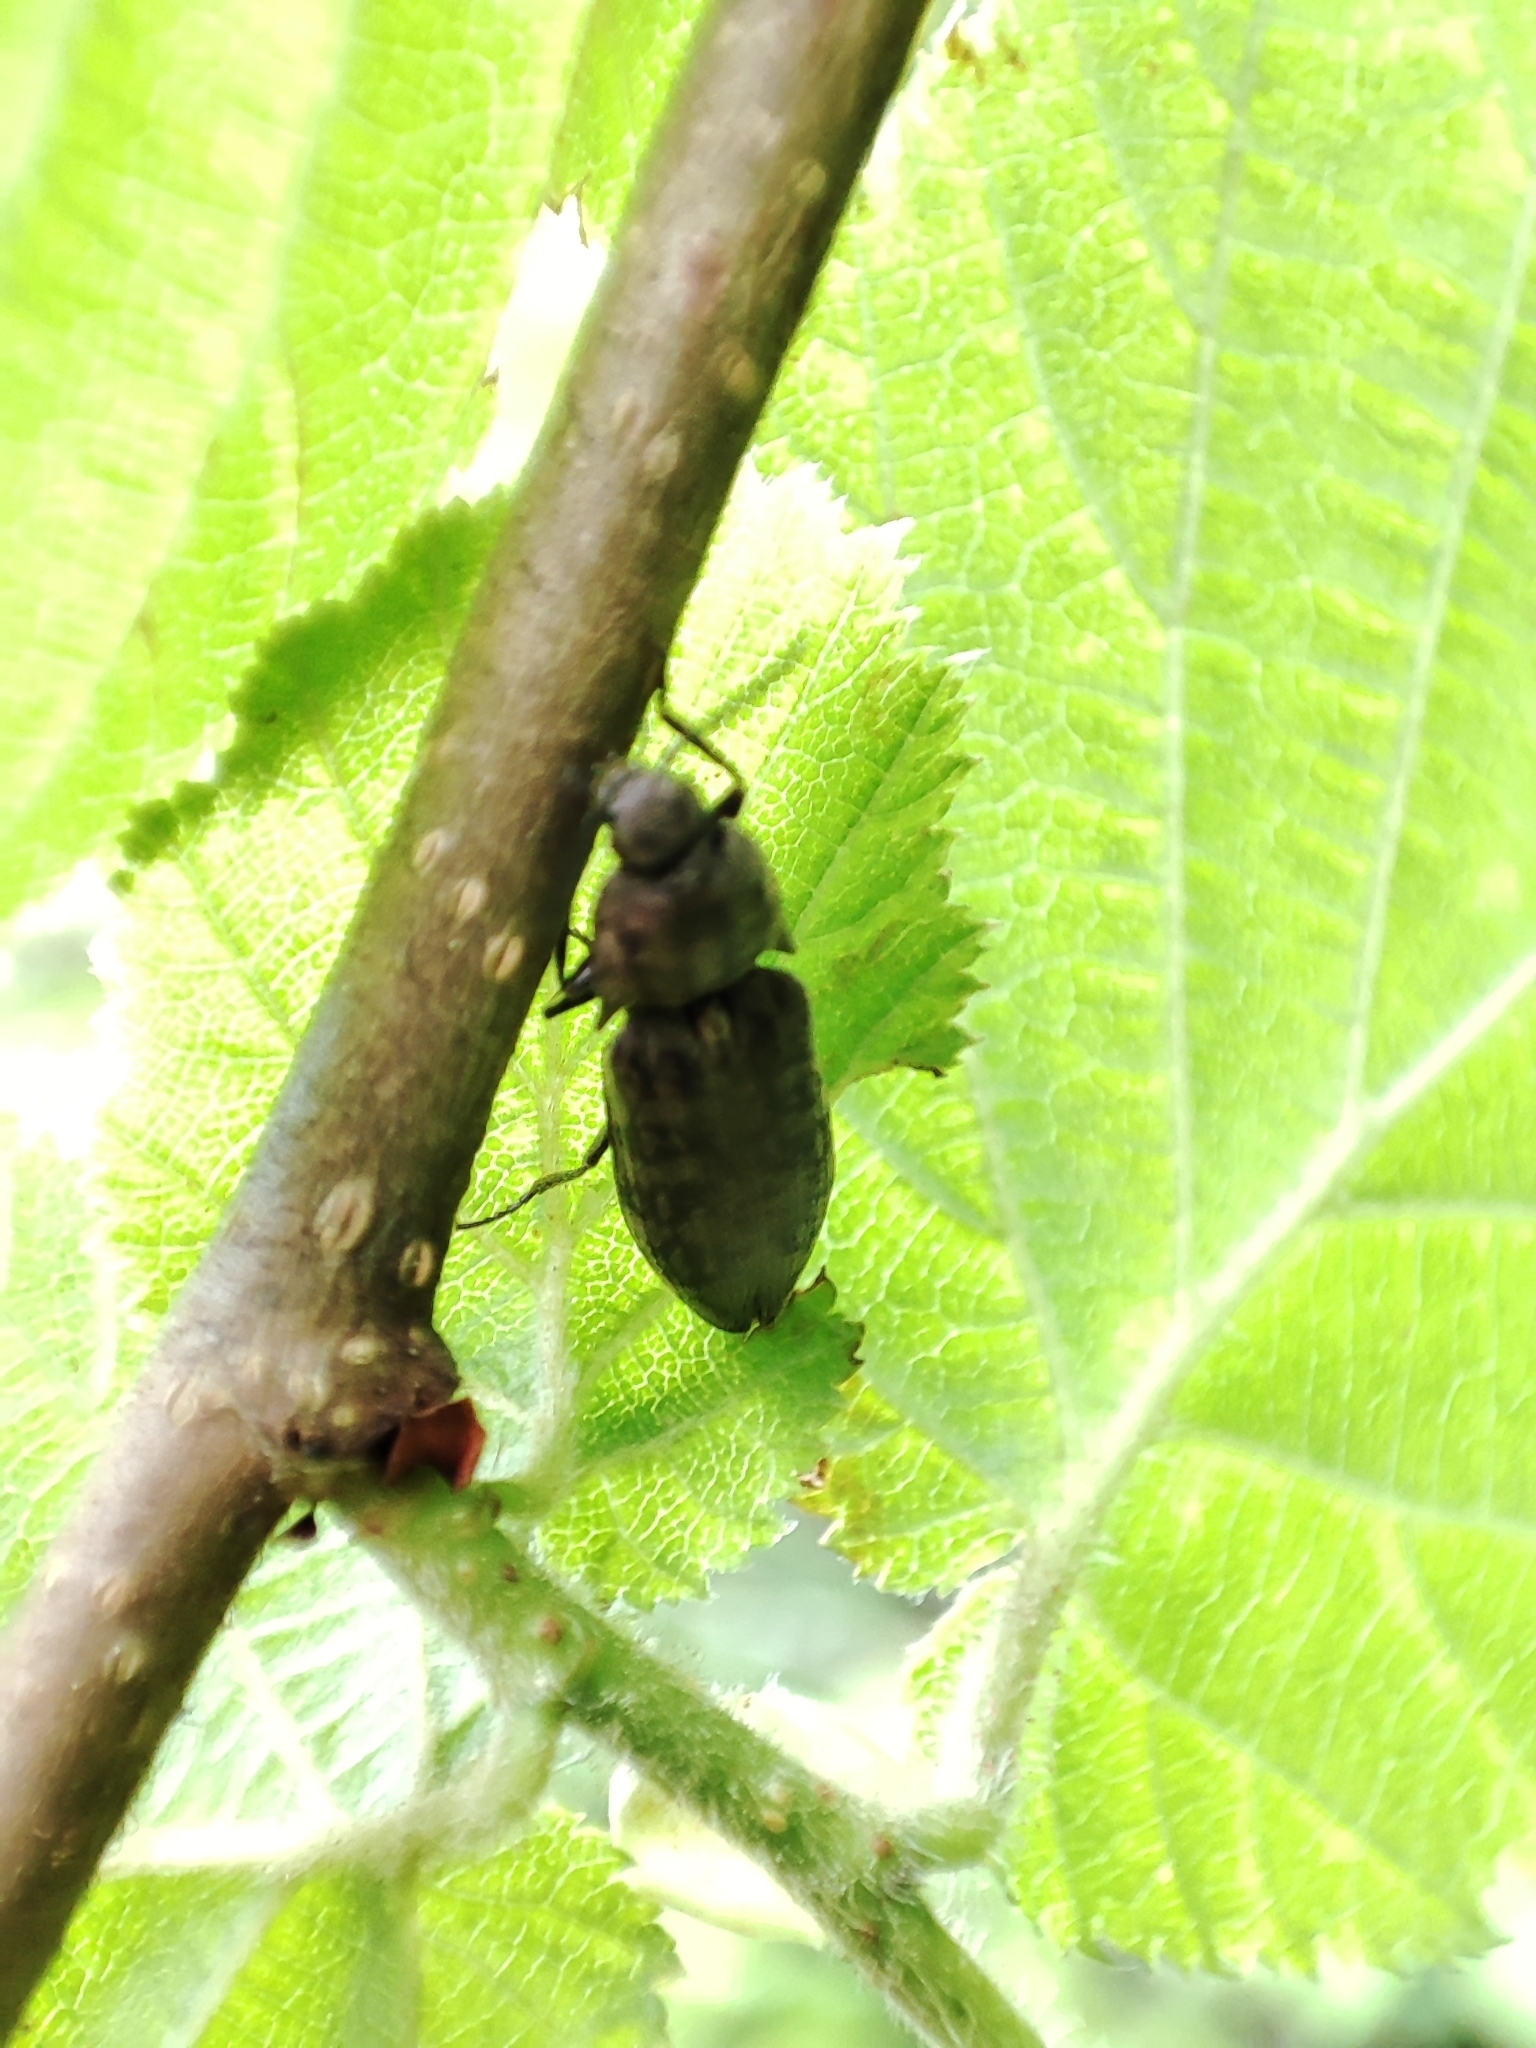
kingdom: Animalia
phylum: Arthropoda
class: Insecta
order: Coleoptera
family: Elateridae
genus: Actenicerus
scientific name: Actenicerus sjaelandicus
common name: Marsh click beetle
